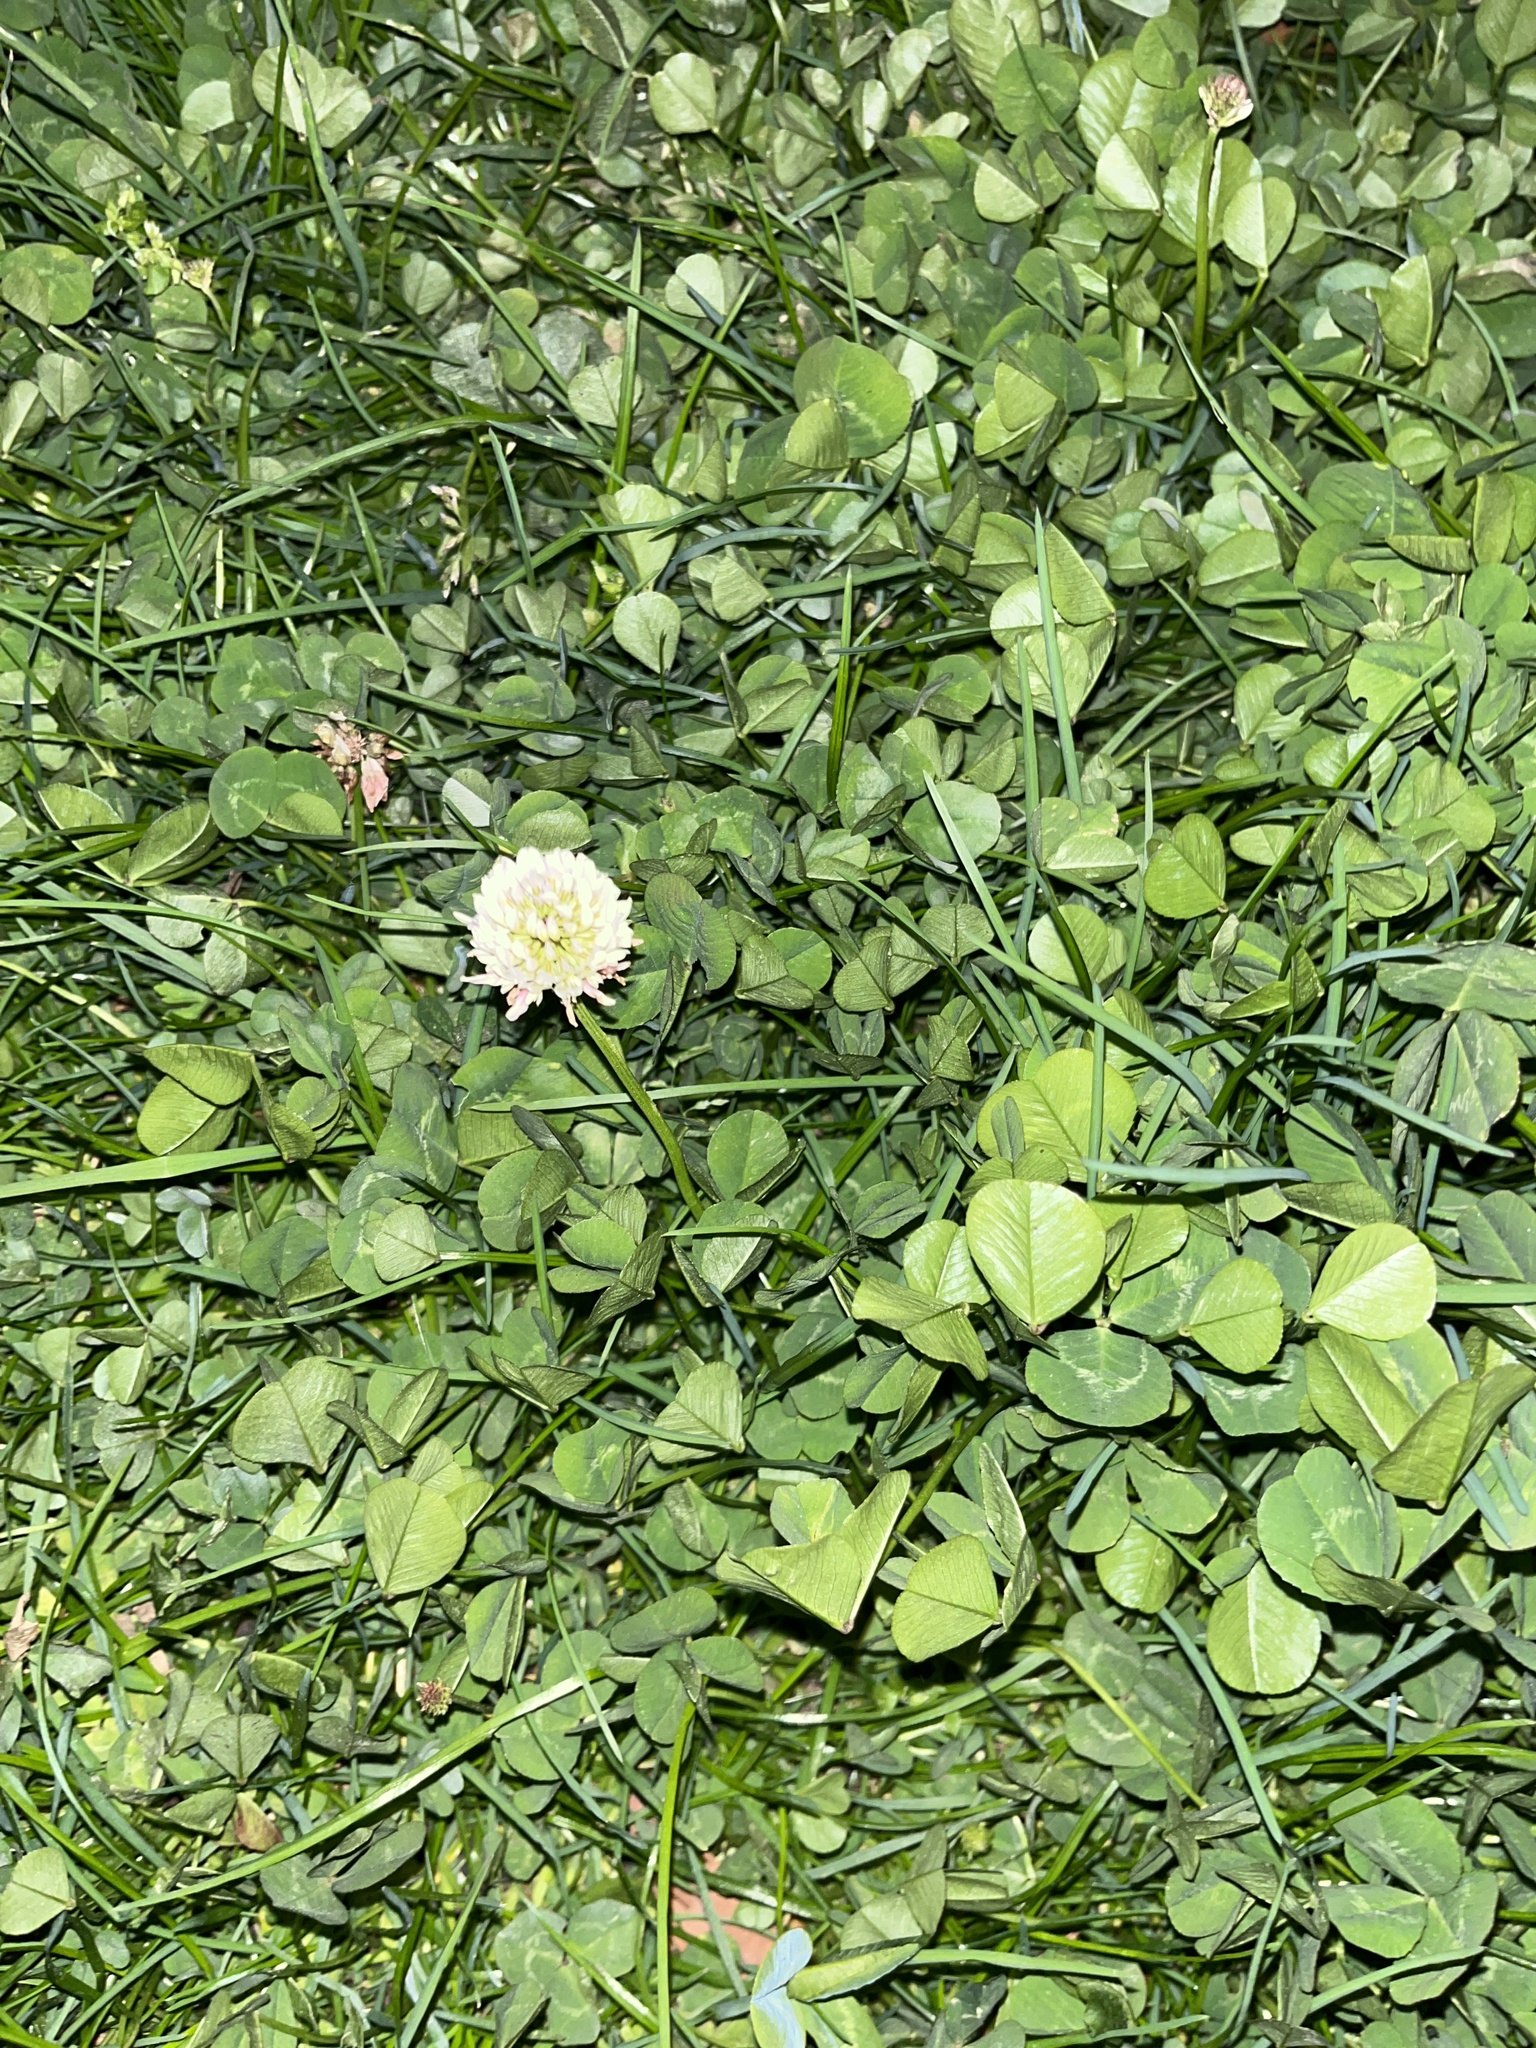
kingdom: Plantae
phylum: Tracheophyta
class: Magnoliopsida
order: Fabales
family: Fabaceae
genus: Trifolium
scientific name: Trifolium repens
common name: White clover
